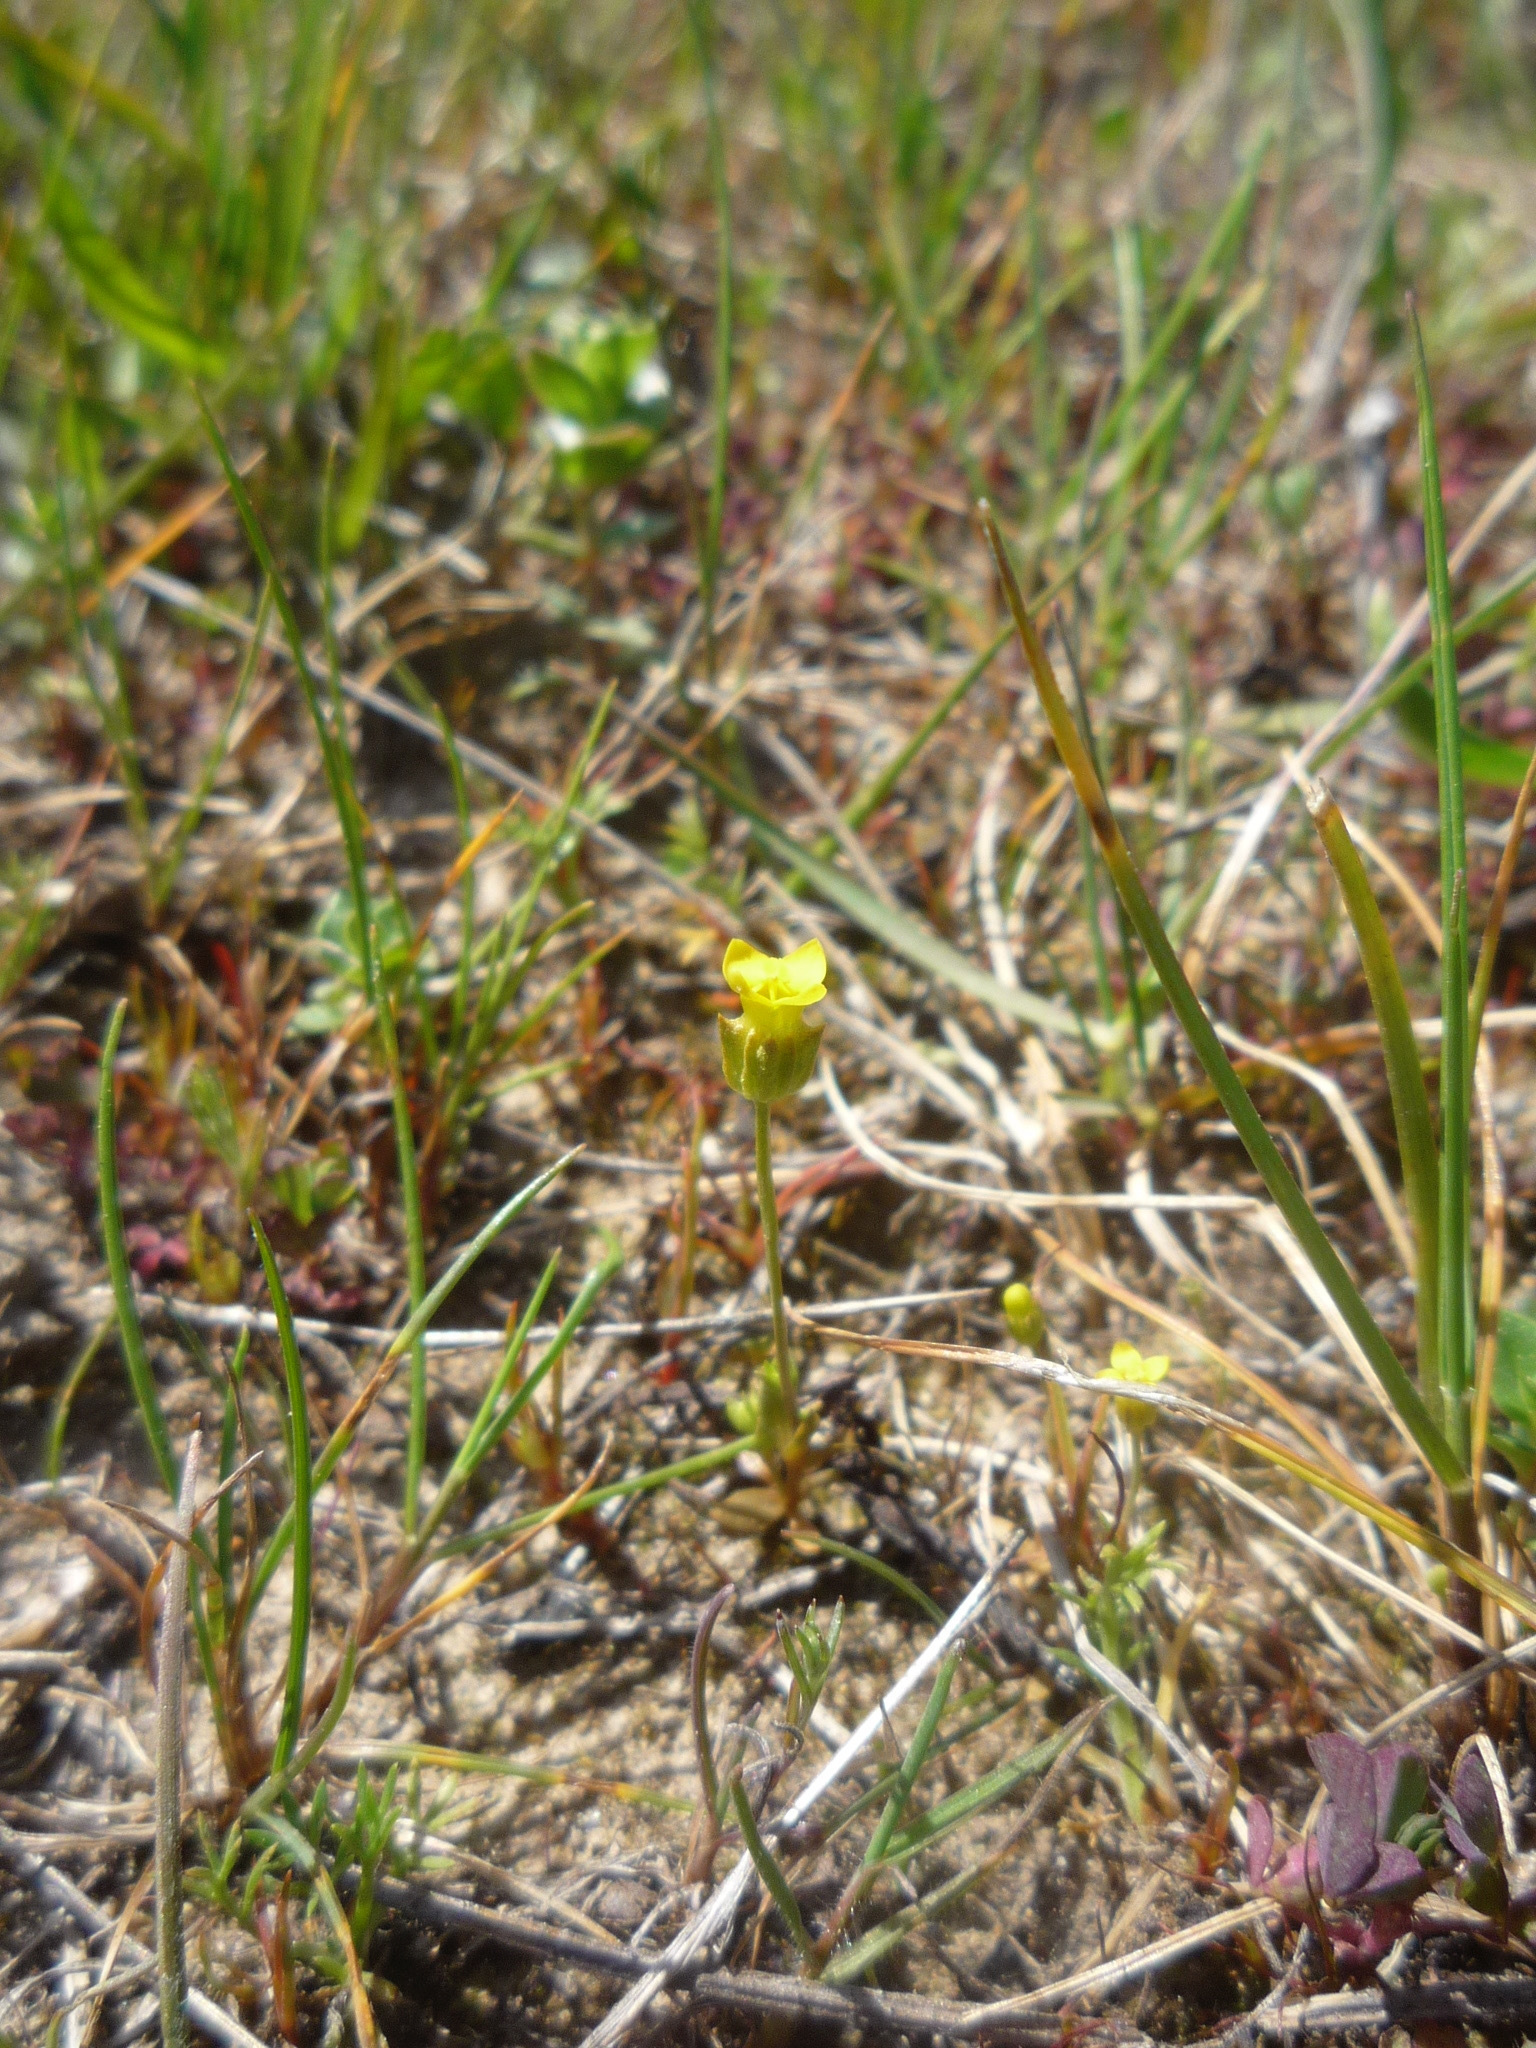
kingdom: Plantae
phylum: Tracheophyta
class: Magnoliopsida
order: Gentianales
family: Gentianaceae
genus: Microcala
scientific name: Microcala quadrangularis
